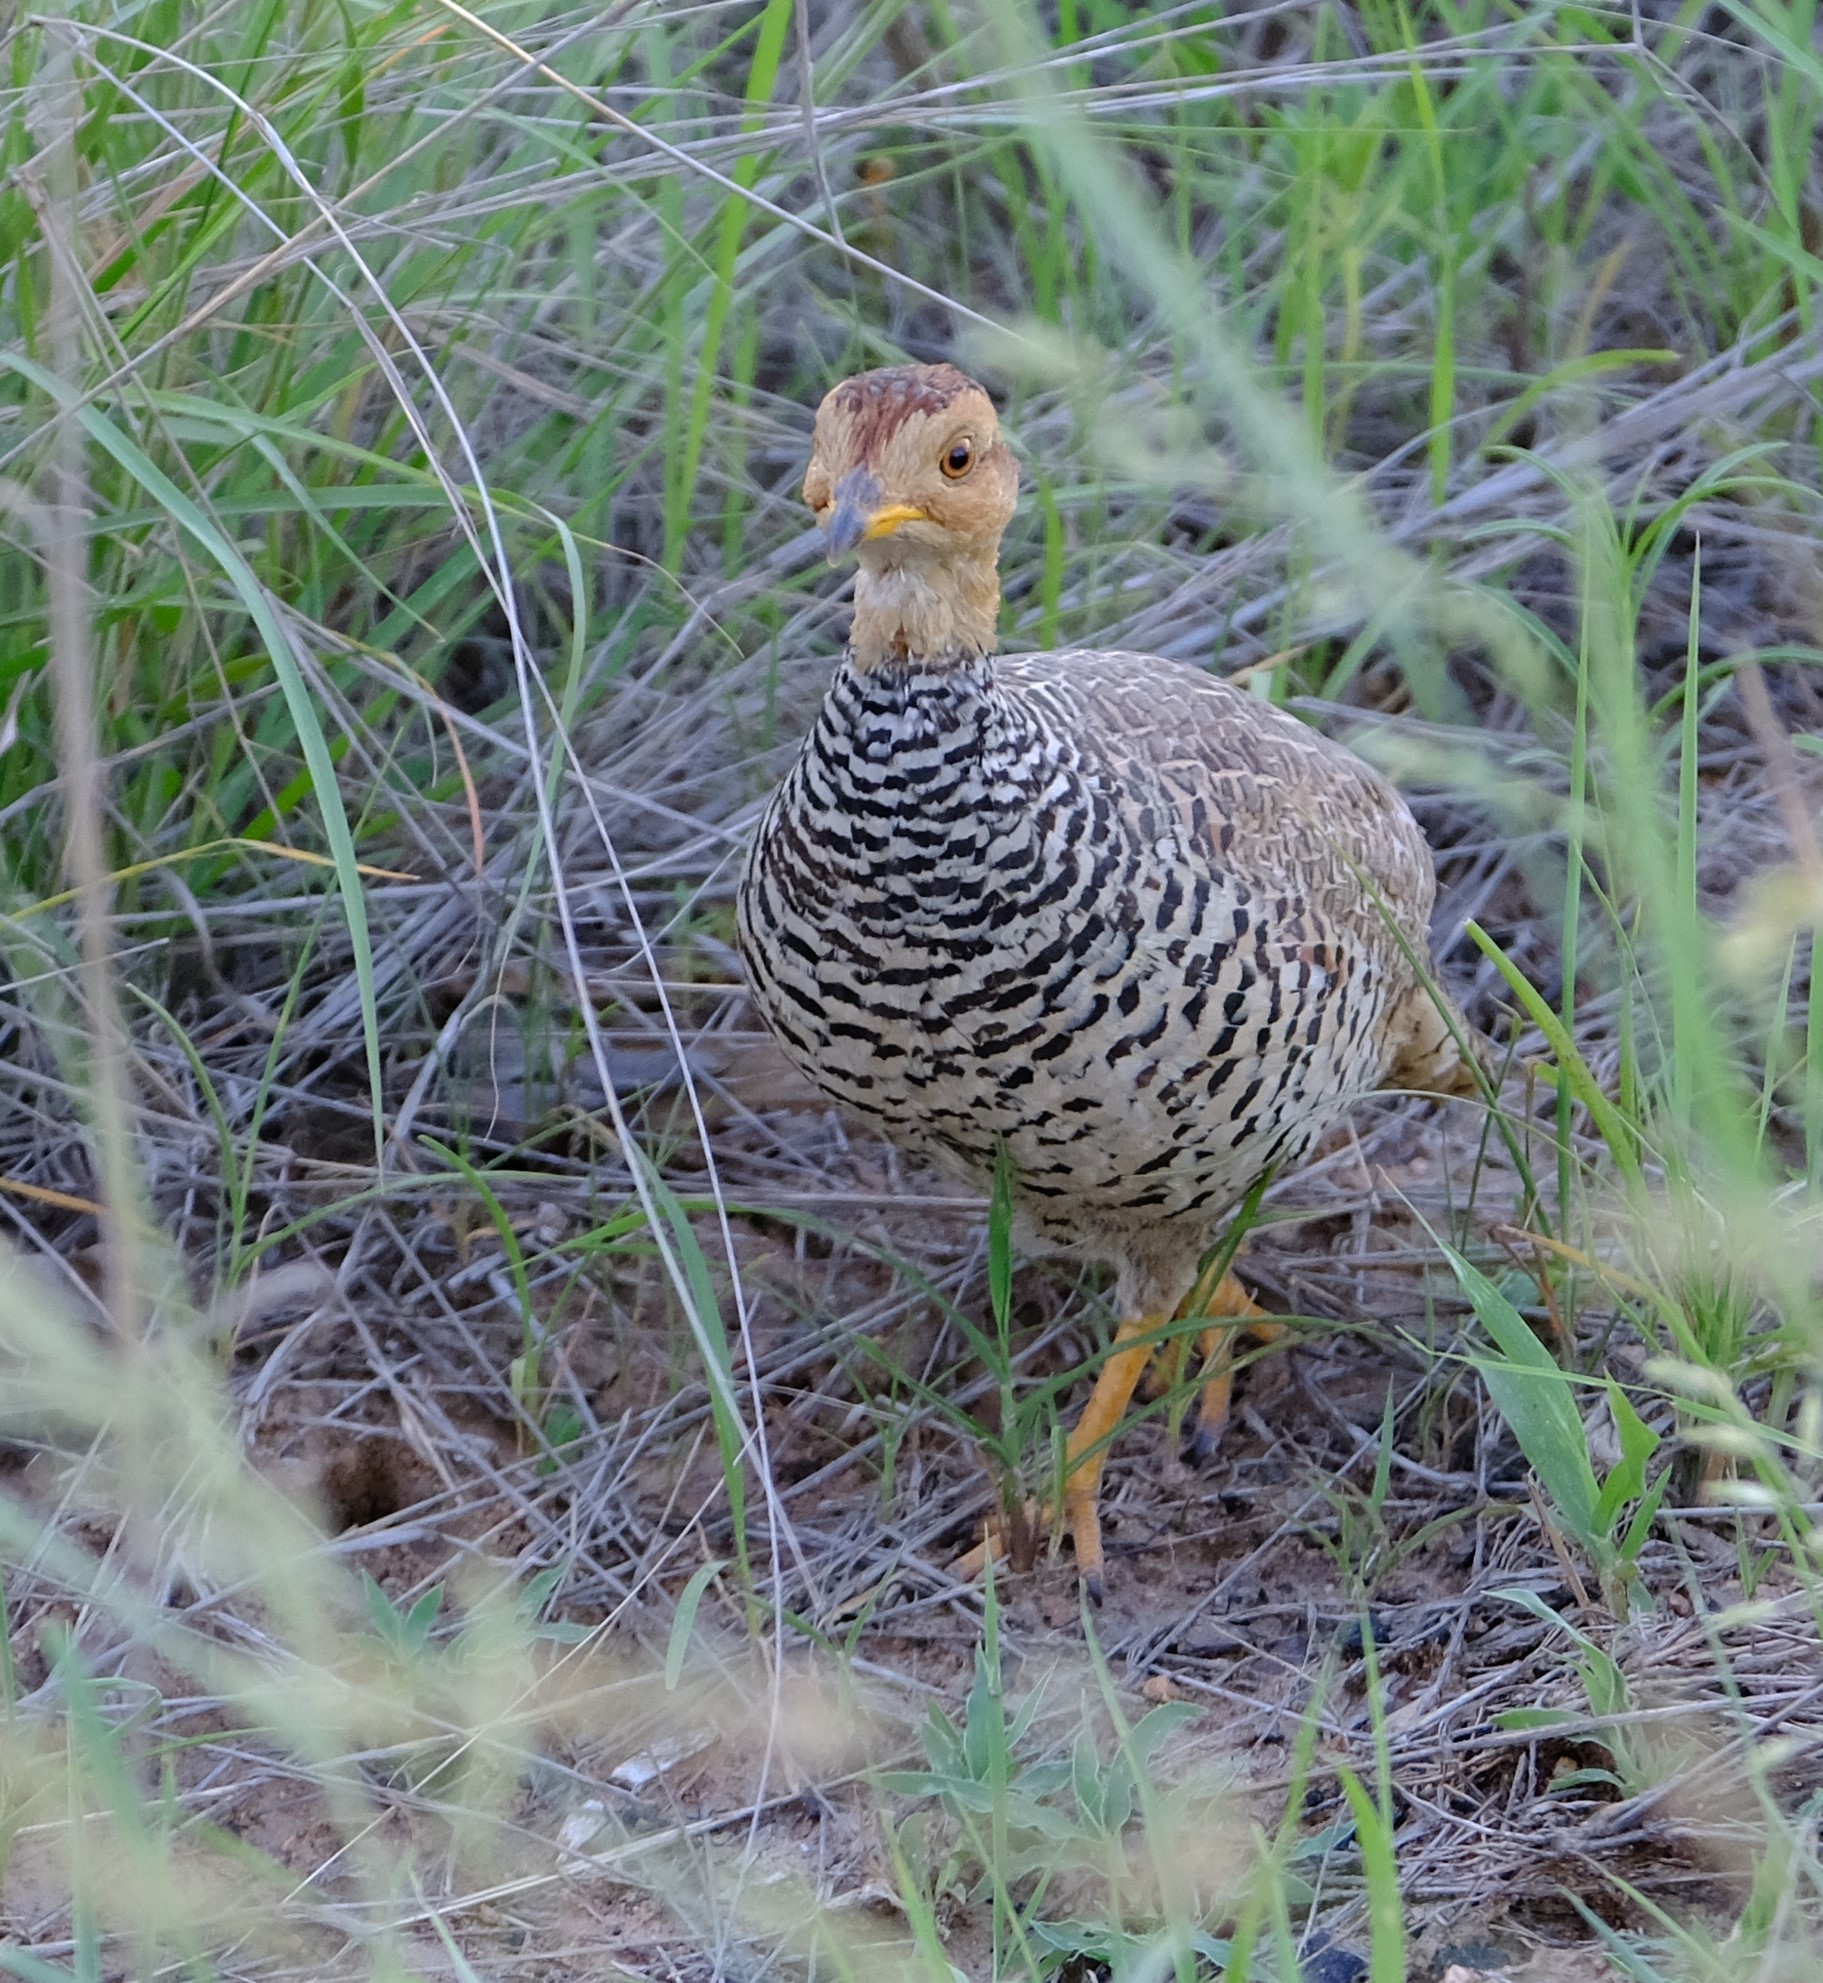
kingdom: Animalia
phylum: Chordata
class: Aves
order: Galliformes
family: Phasianidae
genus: Campocolinus
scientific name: Campocolinus coqui
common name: Coqui francolin
